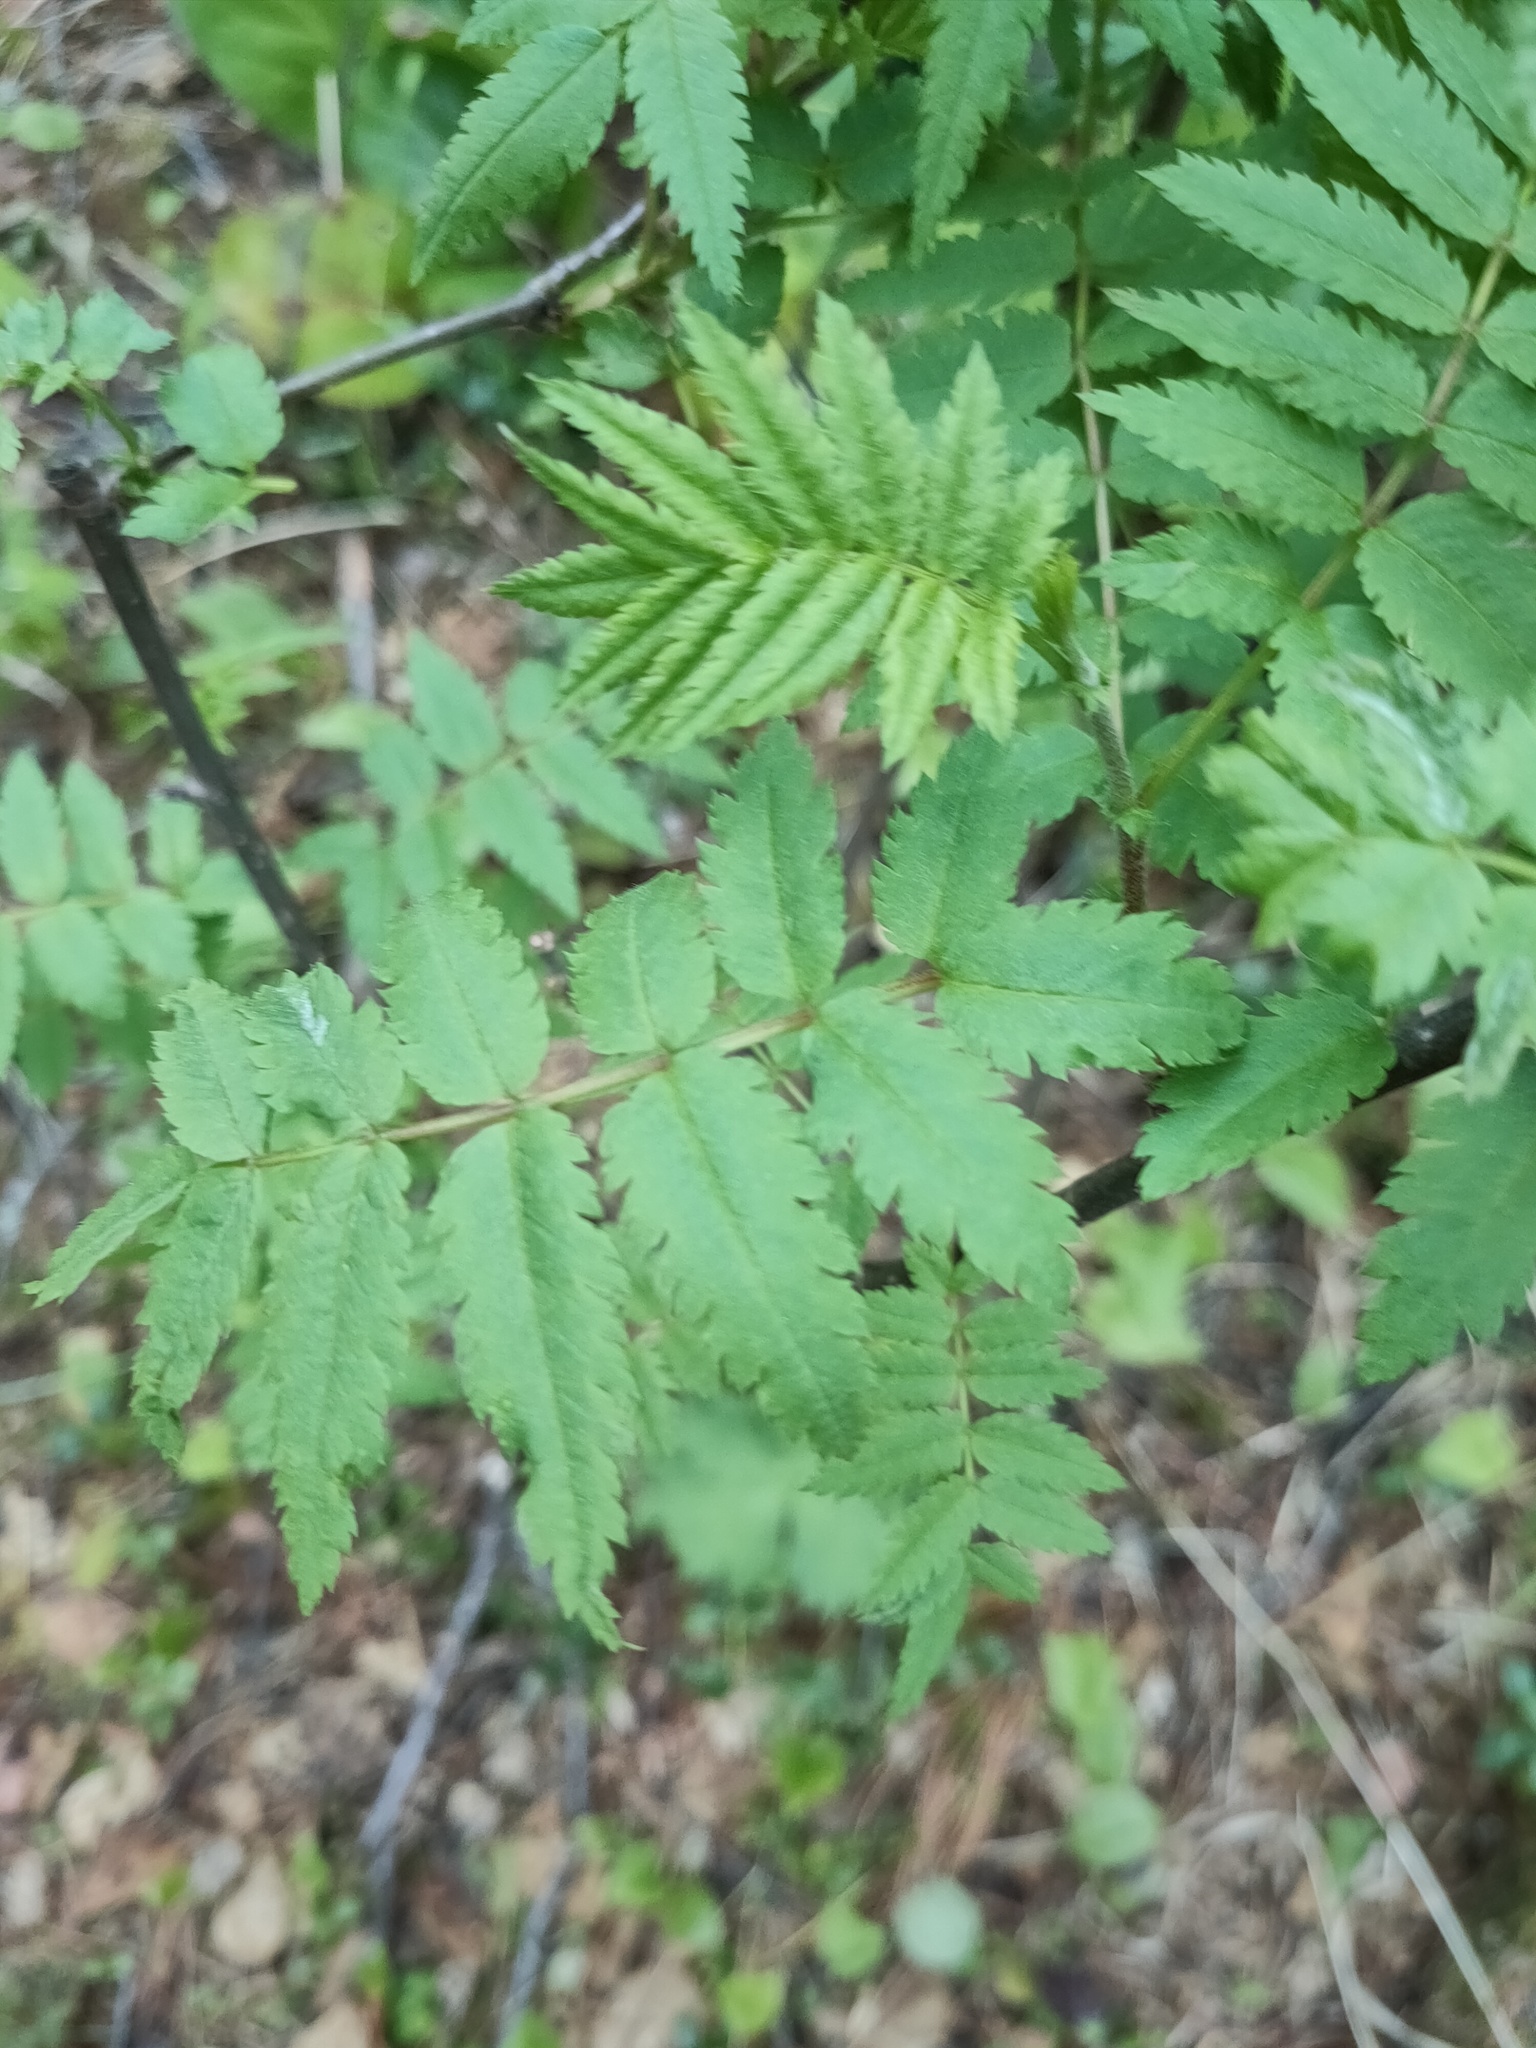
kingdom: Plantae
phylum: Tracheophyta
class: Magnoliopsida
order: Rosales
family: Rosaceae
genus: Sorbus
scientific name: Sorbus aucuparia
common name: Rowan
